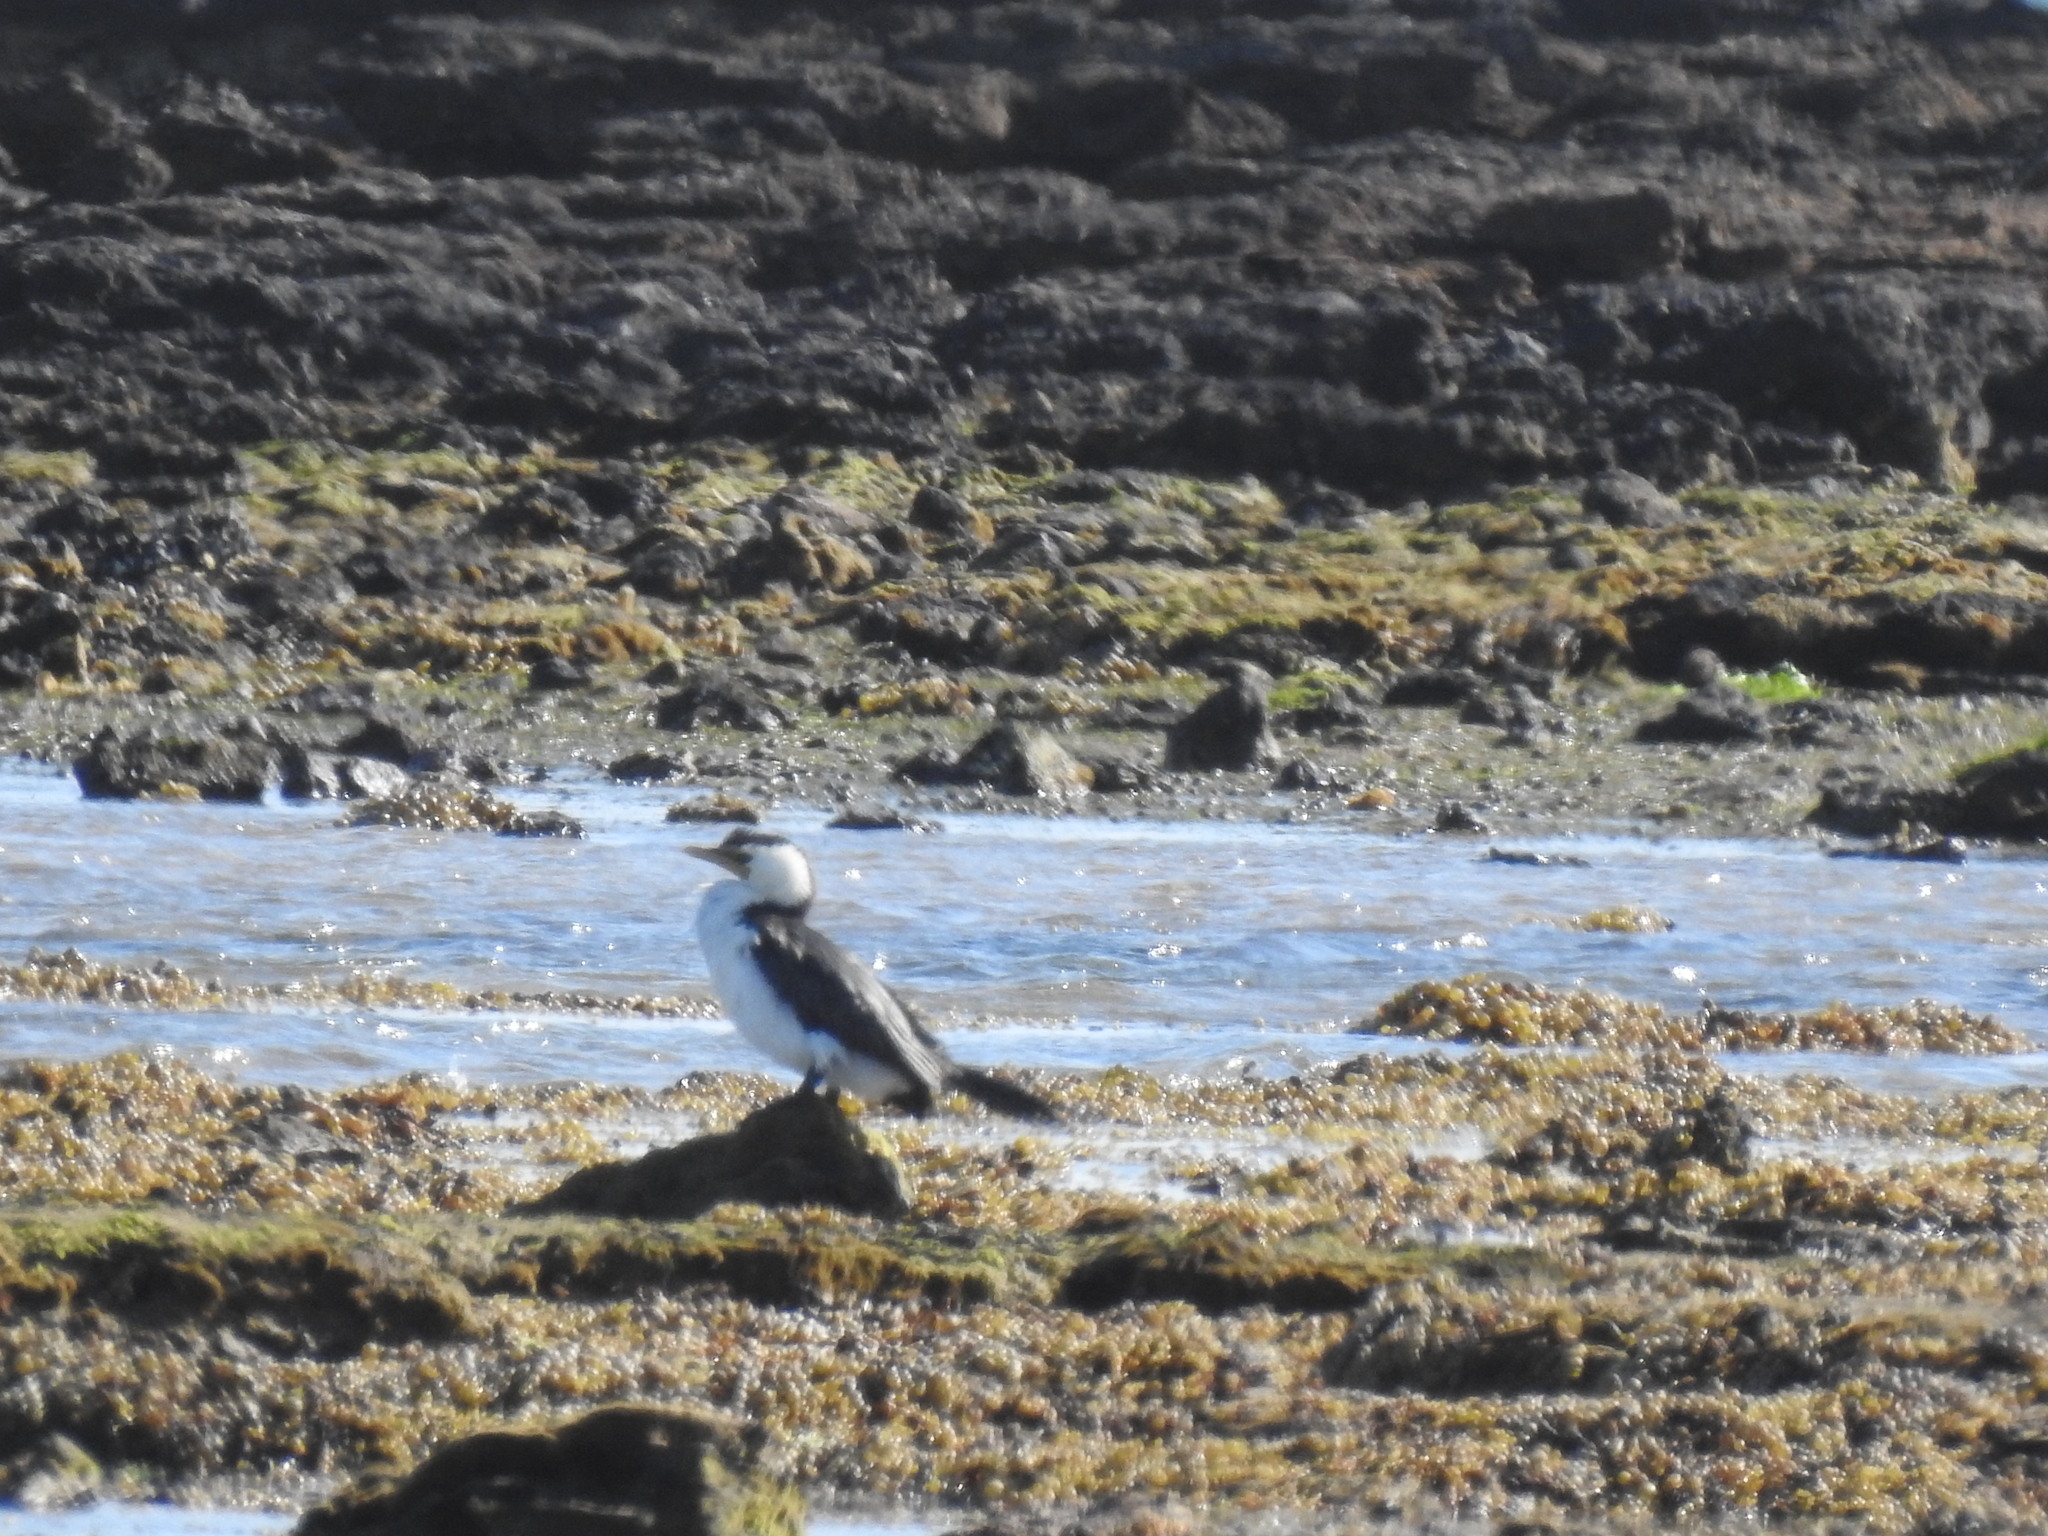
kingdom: Animalia
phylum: Chordata
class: Aves
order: Suliformes
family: Phalacrocoracidae
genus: Microcarbo
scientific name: Microcarbo melanoleucos
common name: Little pied cormorant
